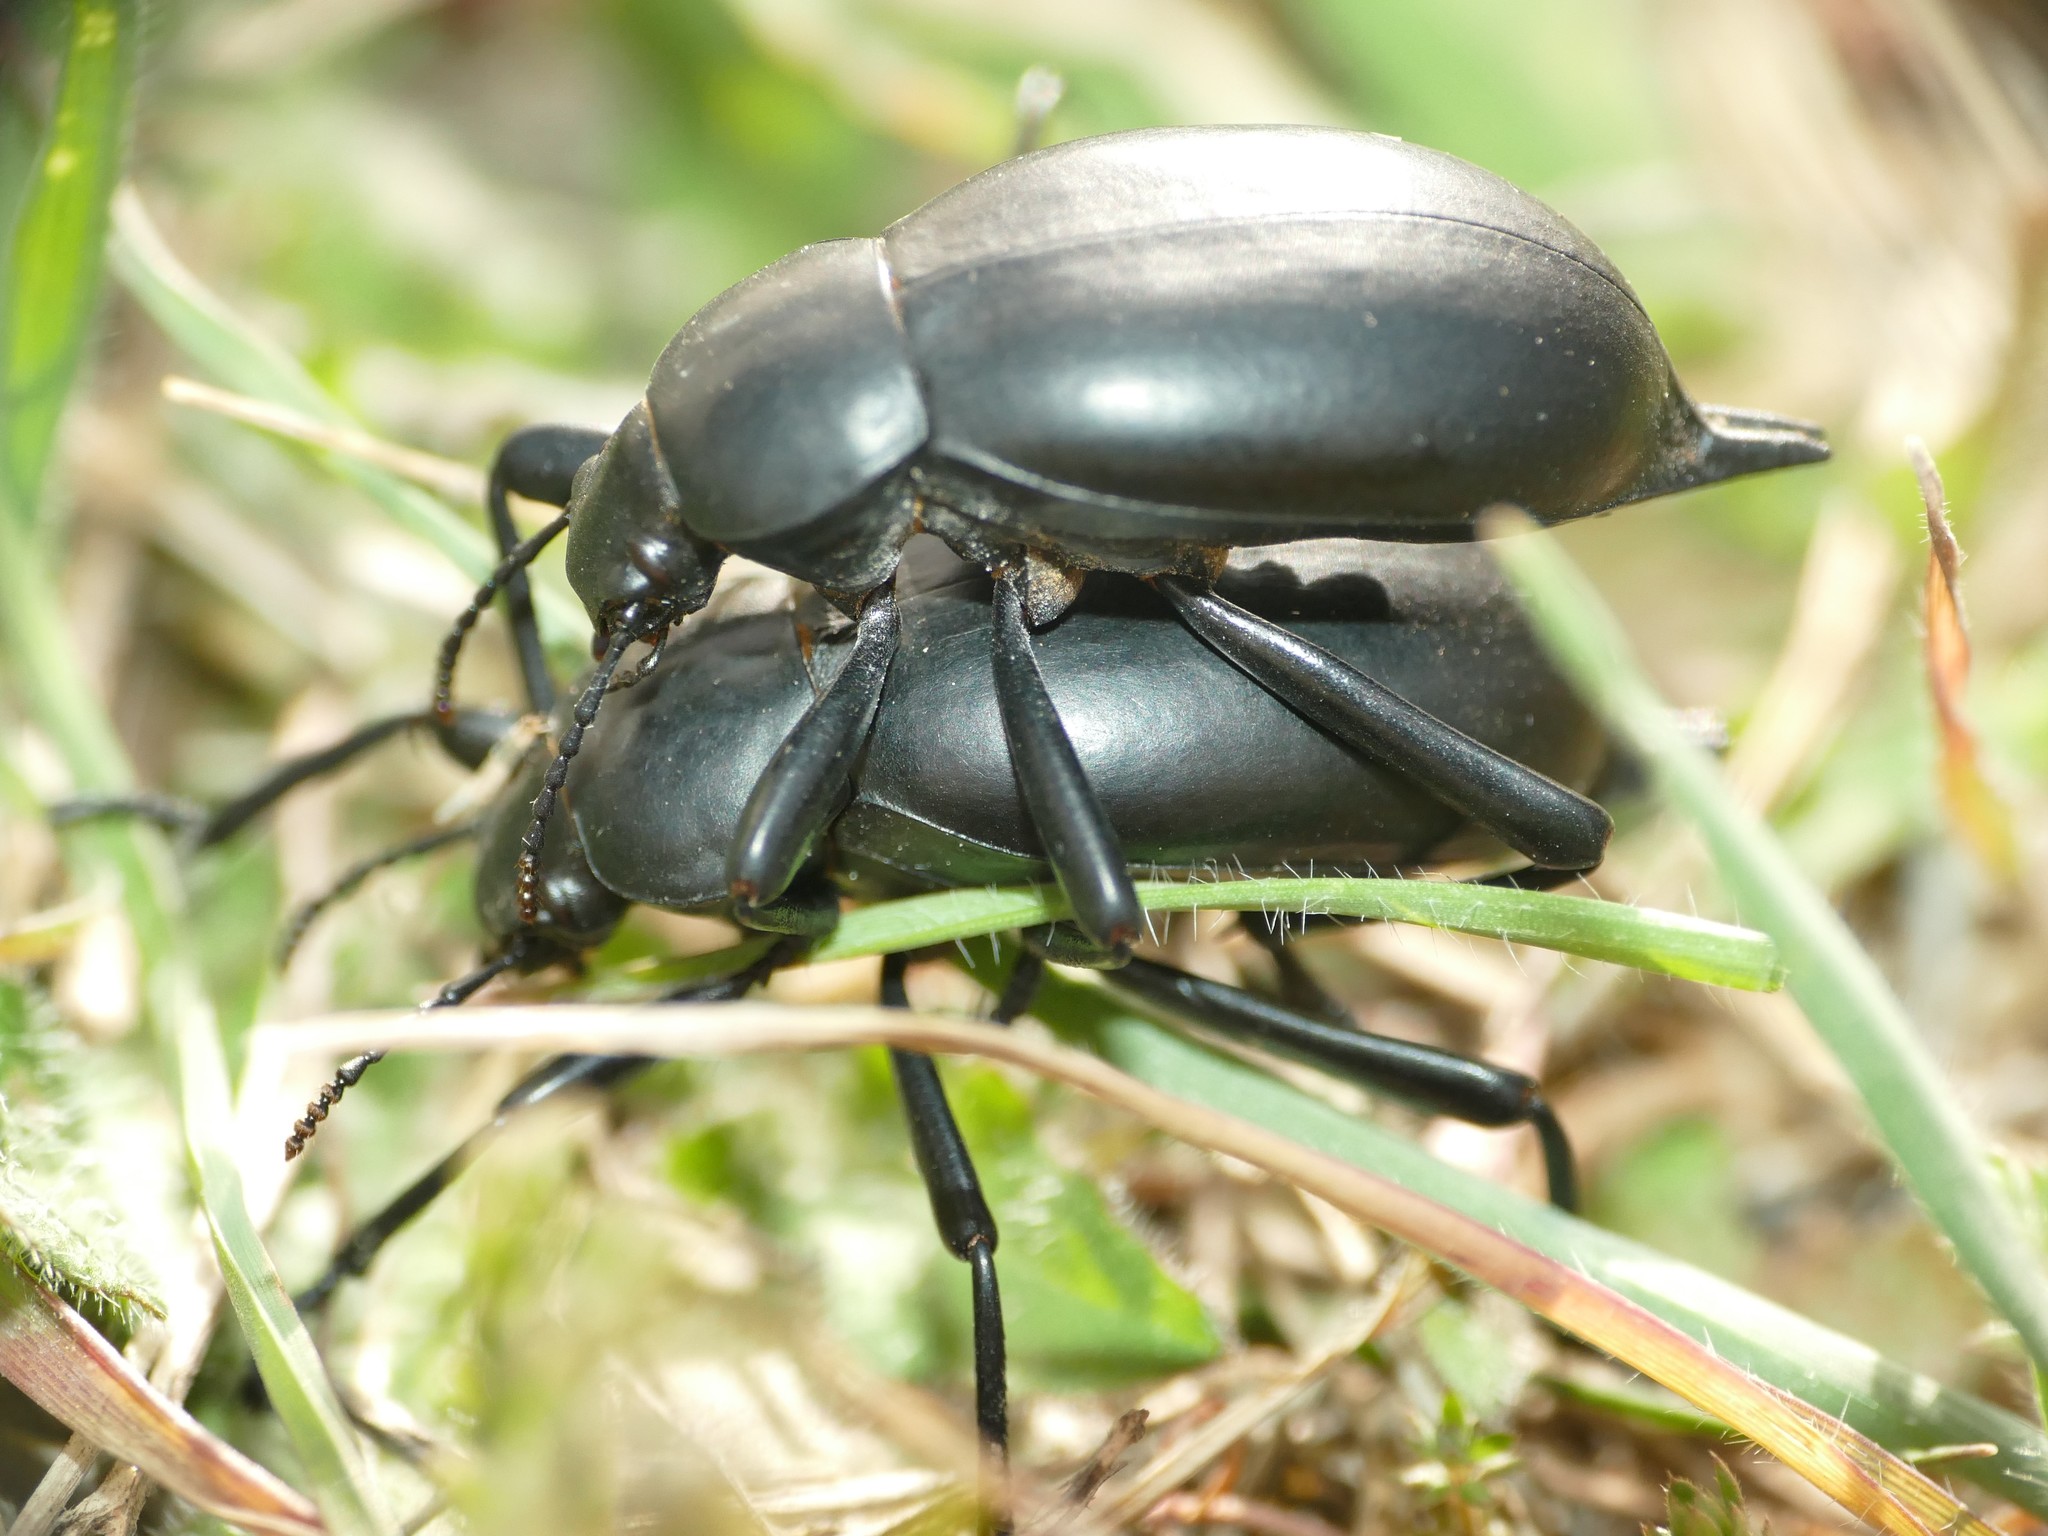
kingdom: Animalia
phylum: Arthropoda
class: Insecta
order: Coleoptera
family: Tenebrionidae
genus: Blaps
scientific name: Blaps hispanica
